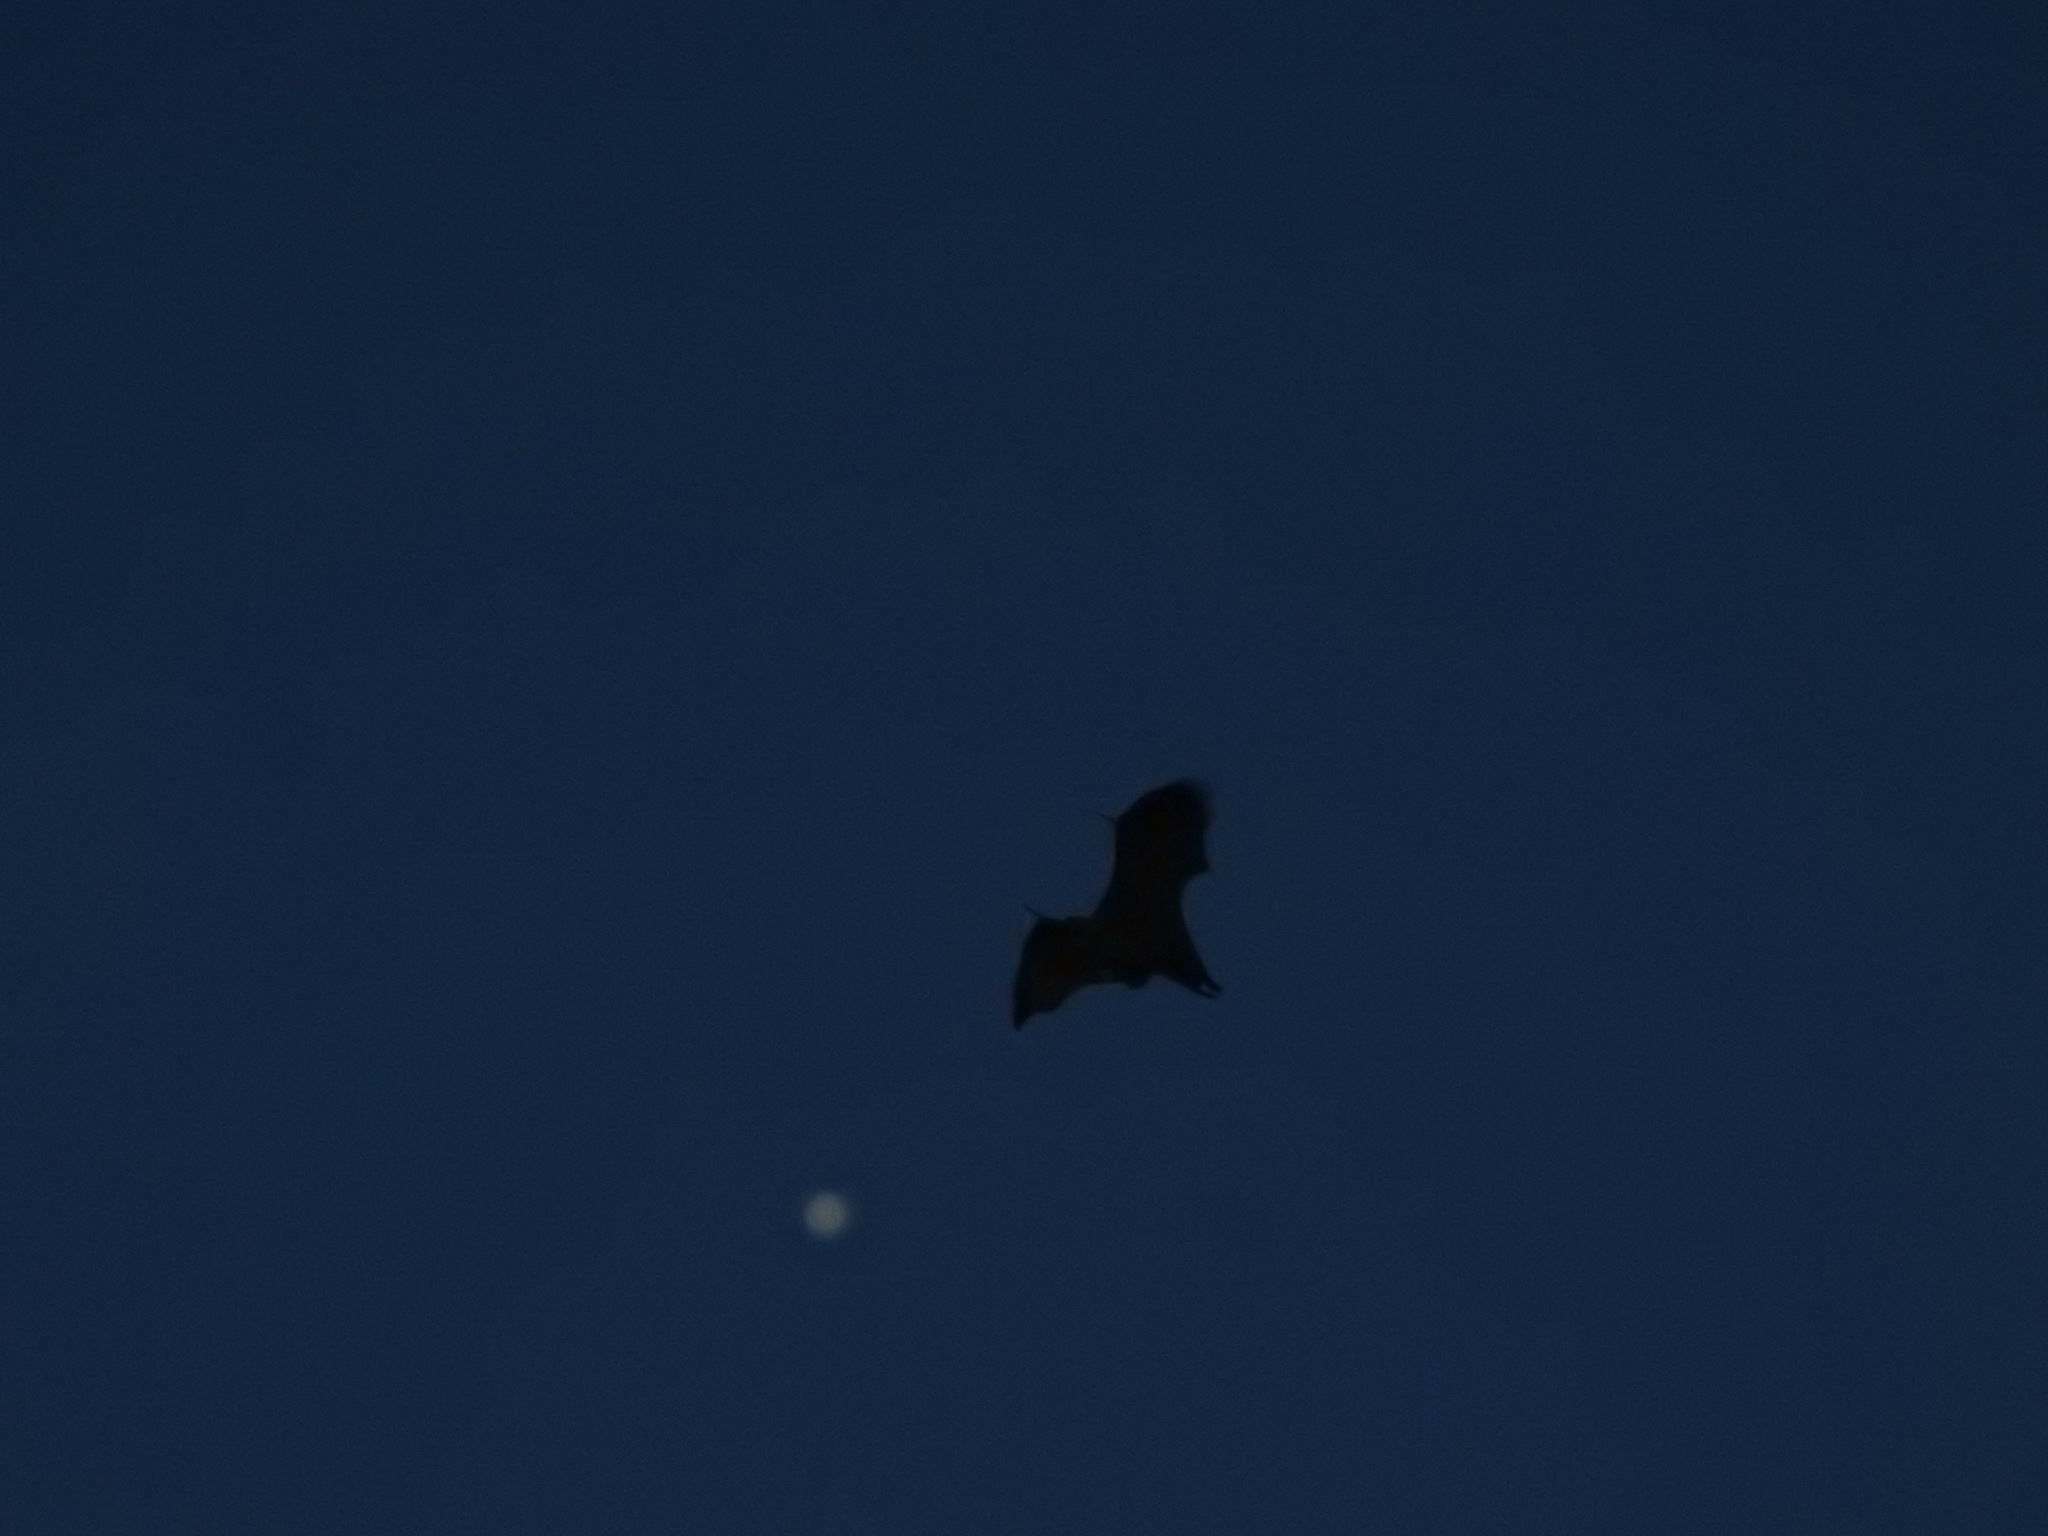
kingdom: Animalia
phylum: Chordata
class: Mammalia
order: Chiroptera
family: Pteropodidae
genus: Pteropus
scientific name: Pteropus vampyrus
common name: Large flying fox
